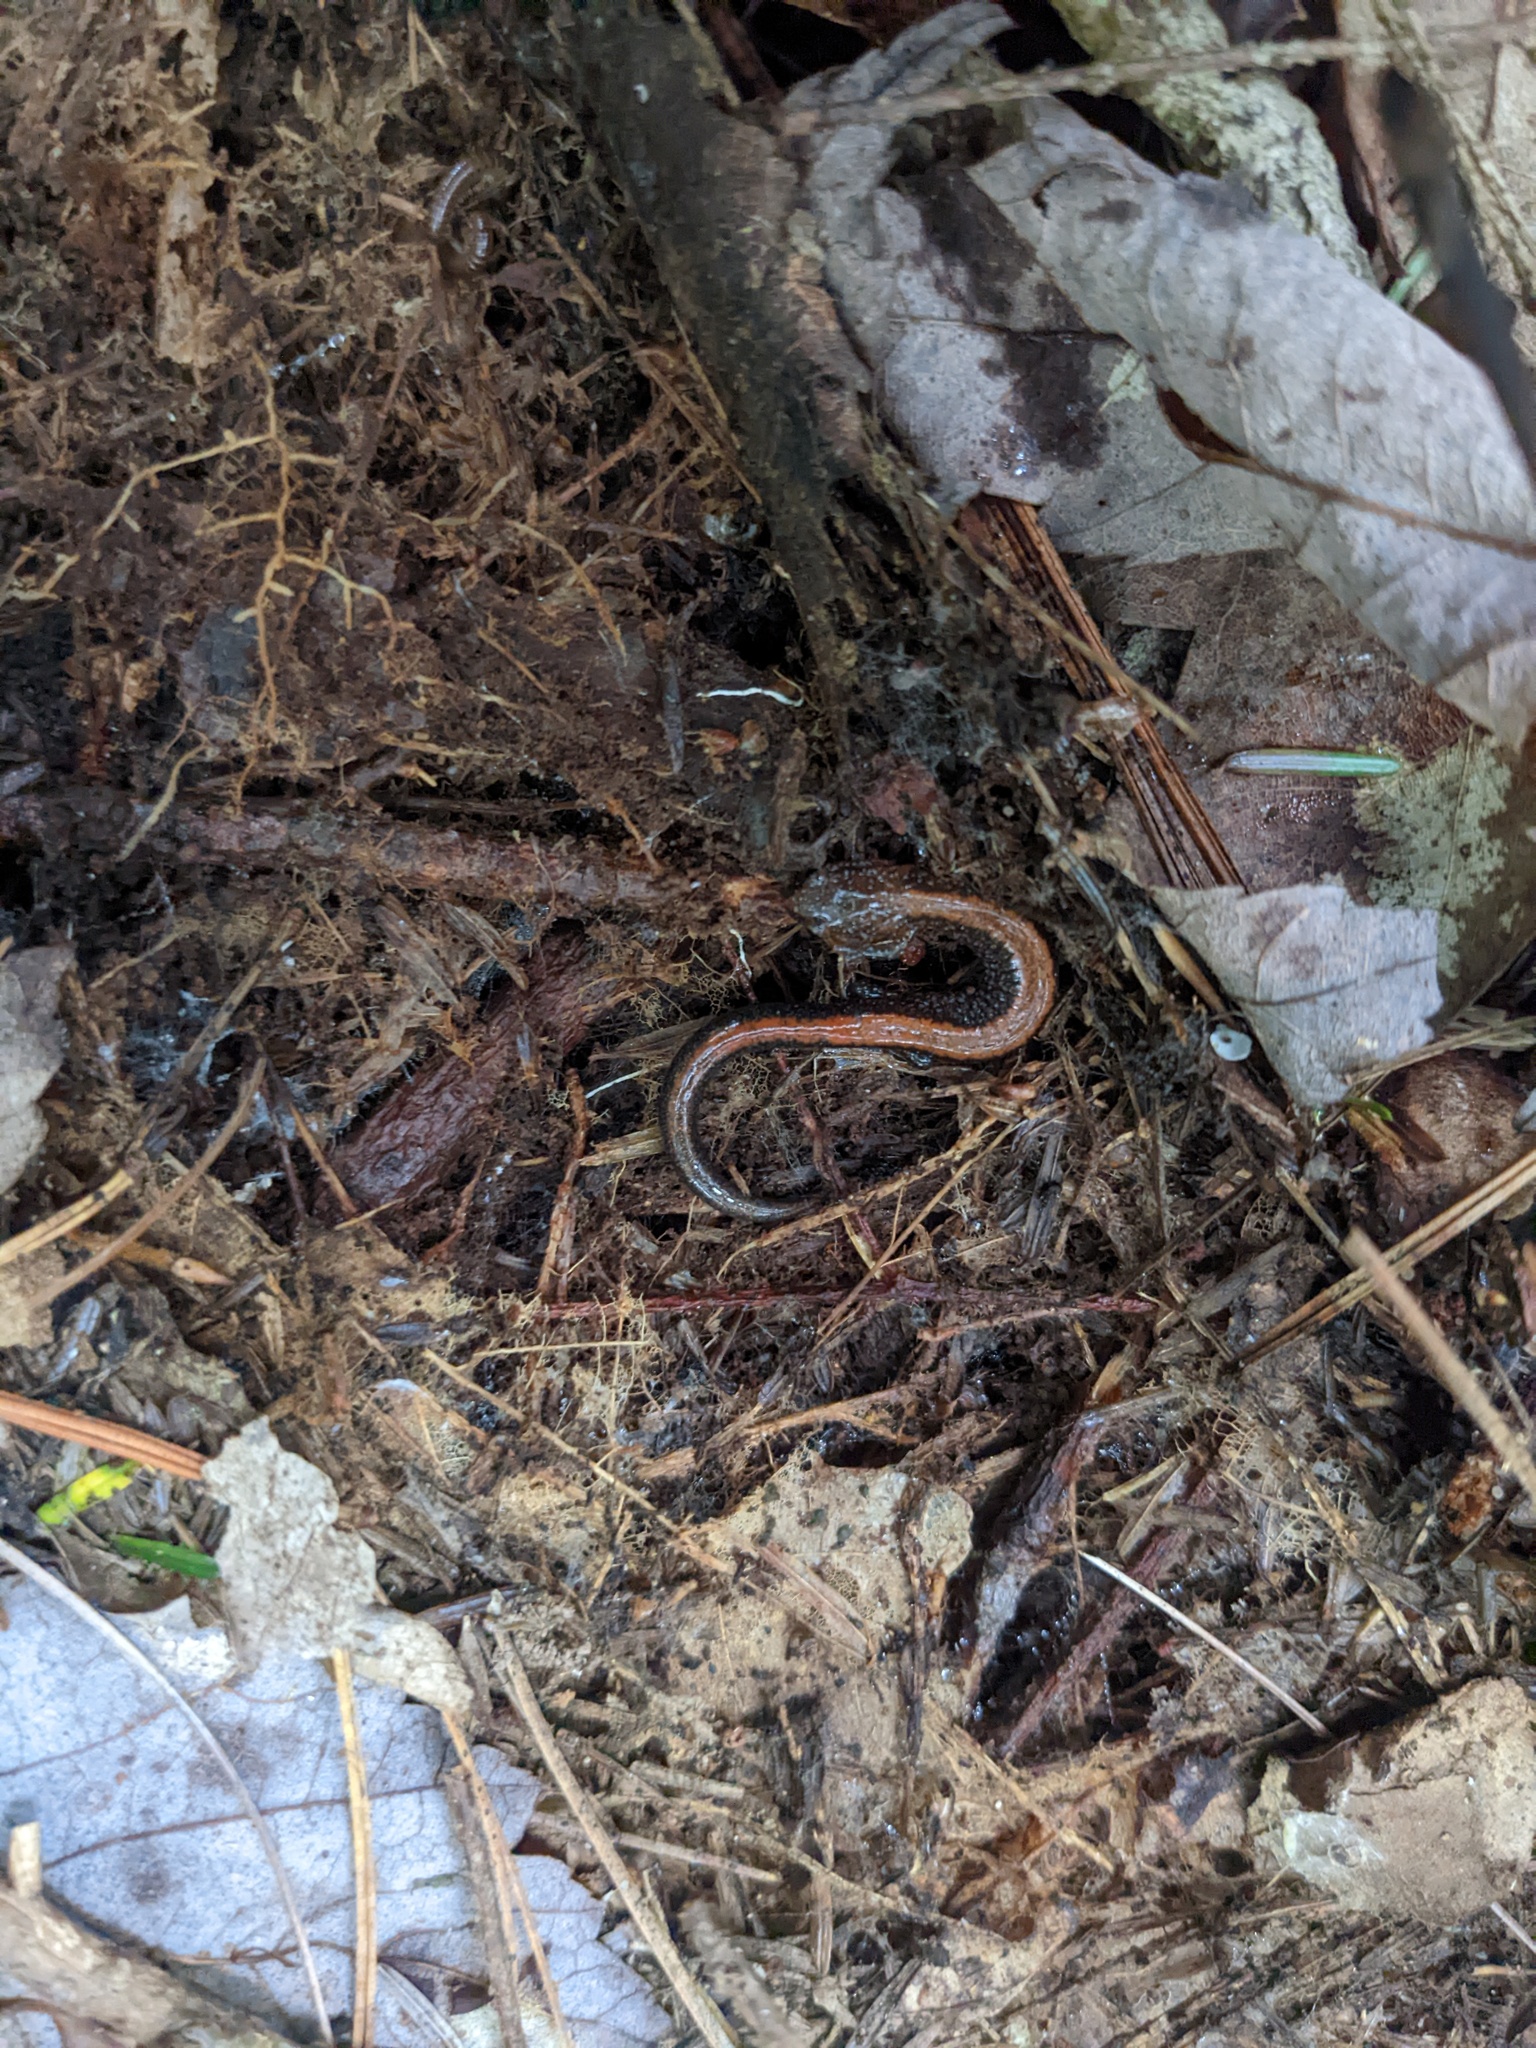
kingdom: Animalia
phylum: Chordata
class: Amphibia
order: Caudata
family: Plethodontidae
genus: Plethodon
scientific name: Plethodon cinereus
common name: Redback salamander
